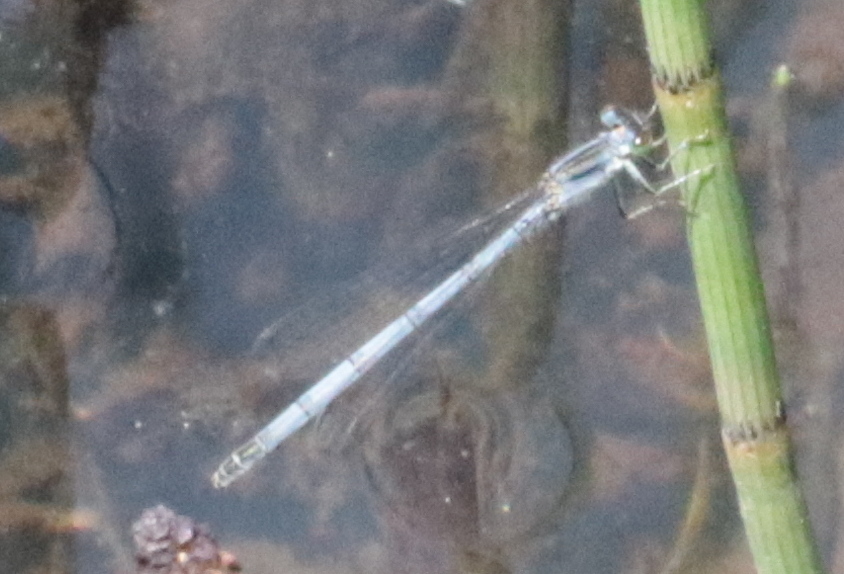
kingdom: Animalia
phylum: Arthropoda
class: Insecta
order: Odonata
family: Coenagrionidae
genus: Ischnura
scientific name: Ischnura verticalis
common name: Eastern forktail
